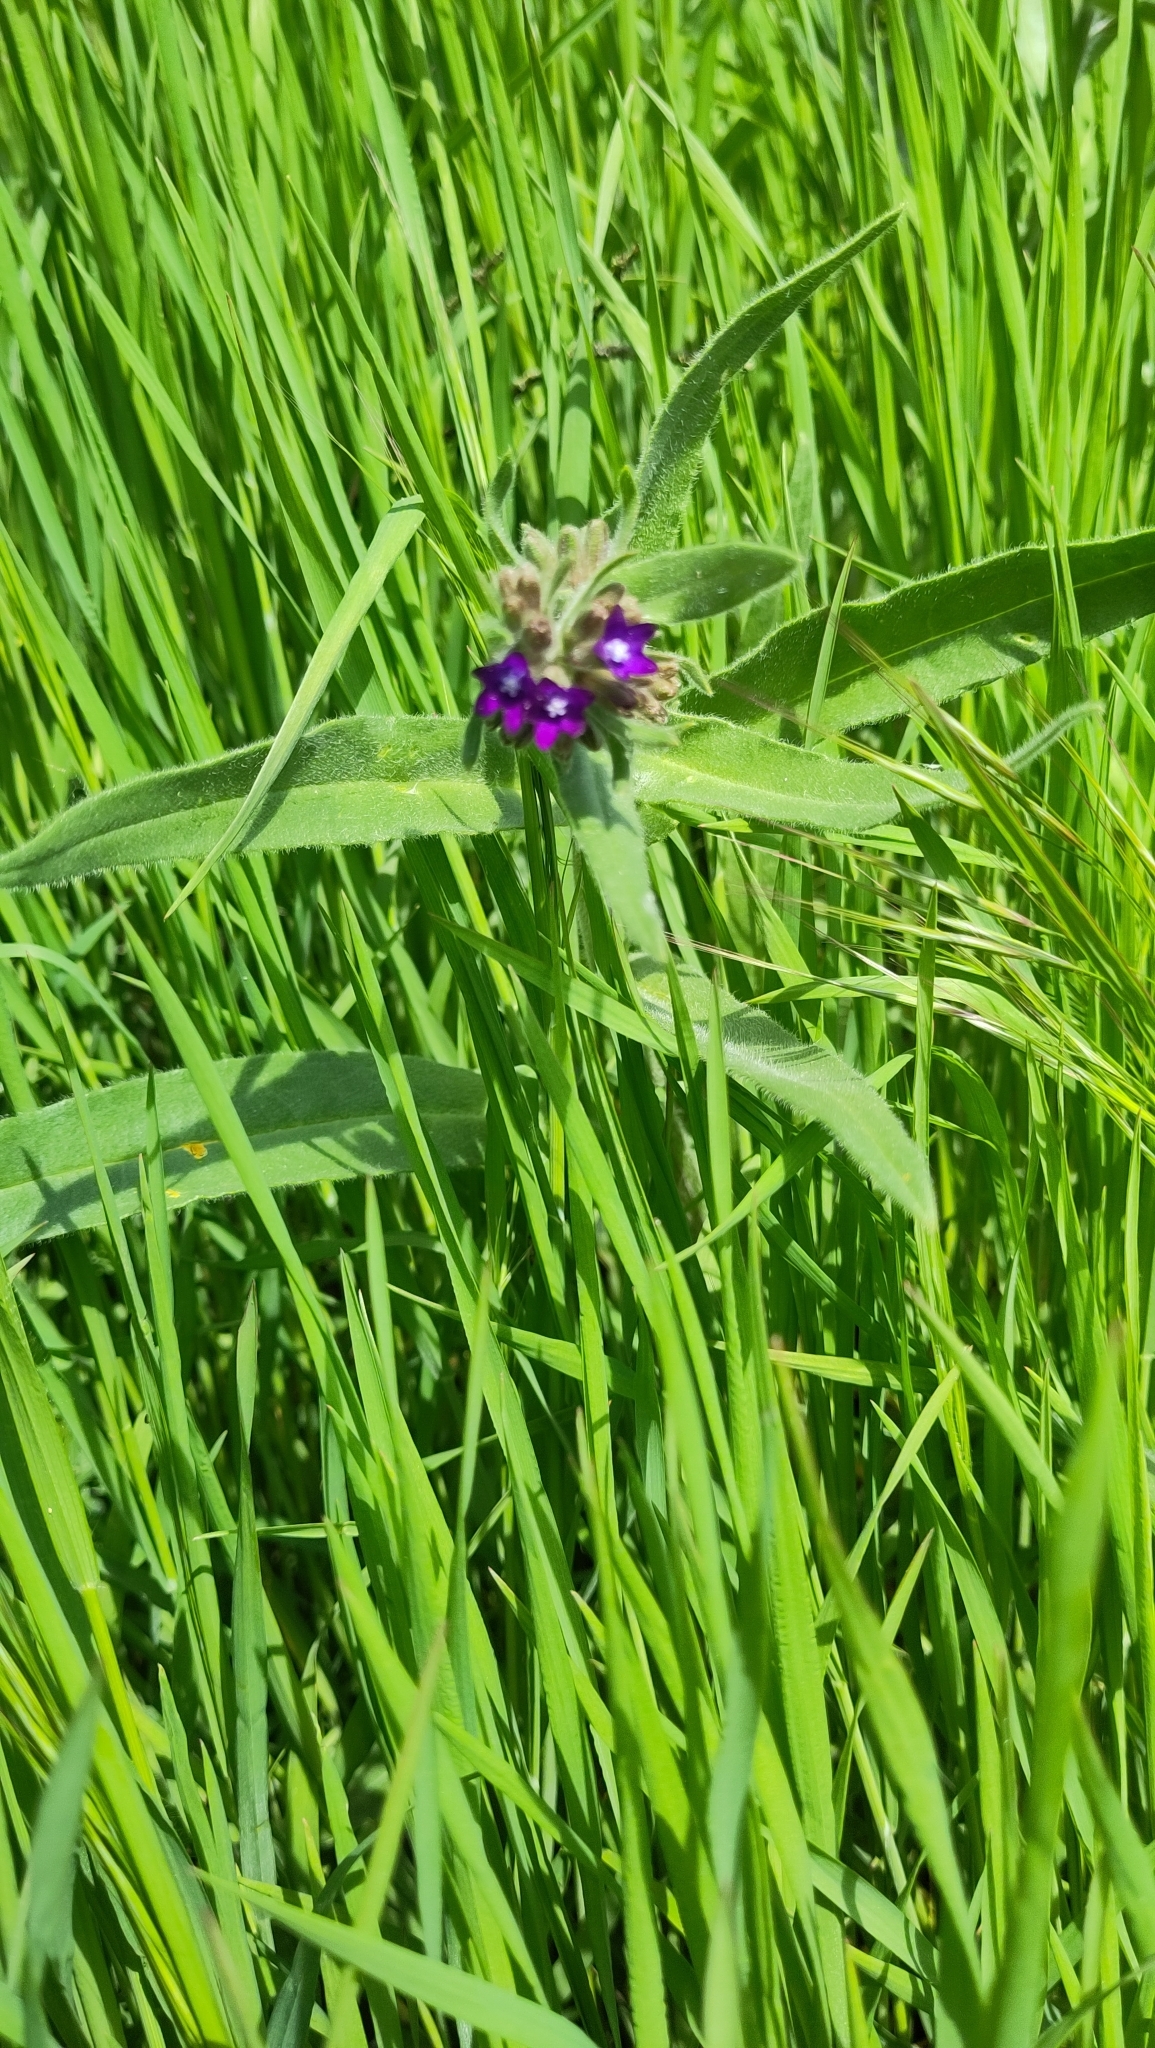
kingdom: Plantae
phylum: Tracheophyta
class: Magnoliopsida
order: Boraginales
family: Boraginaceae
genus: Anchusa
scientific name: Anchusa officinalis
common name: Alkanet
